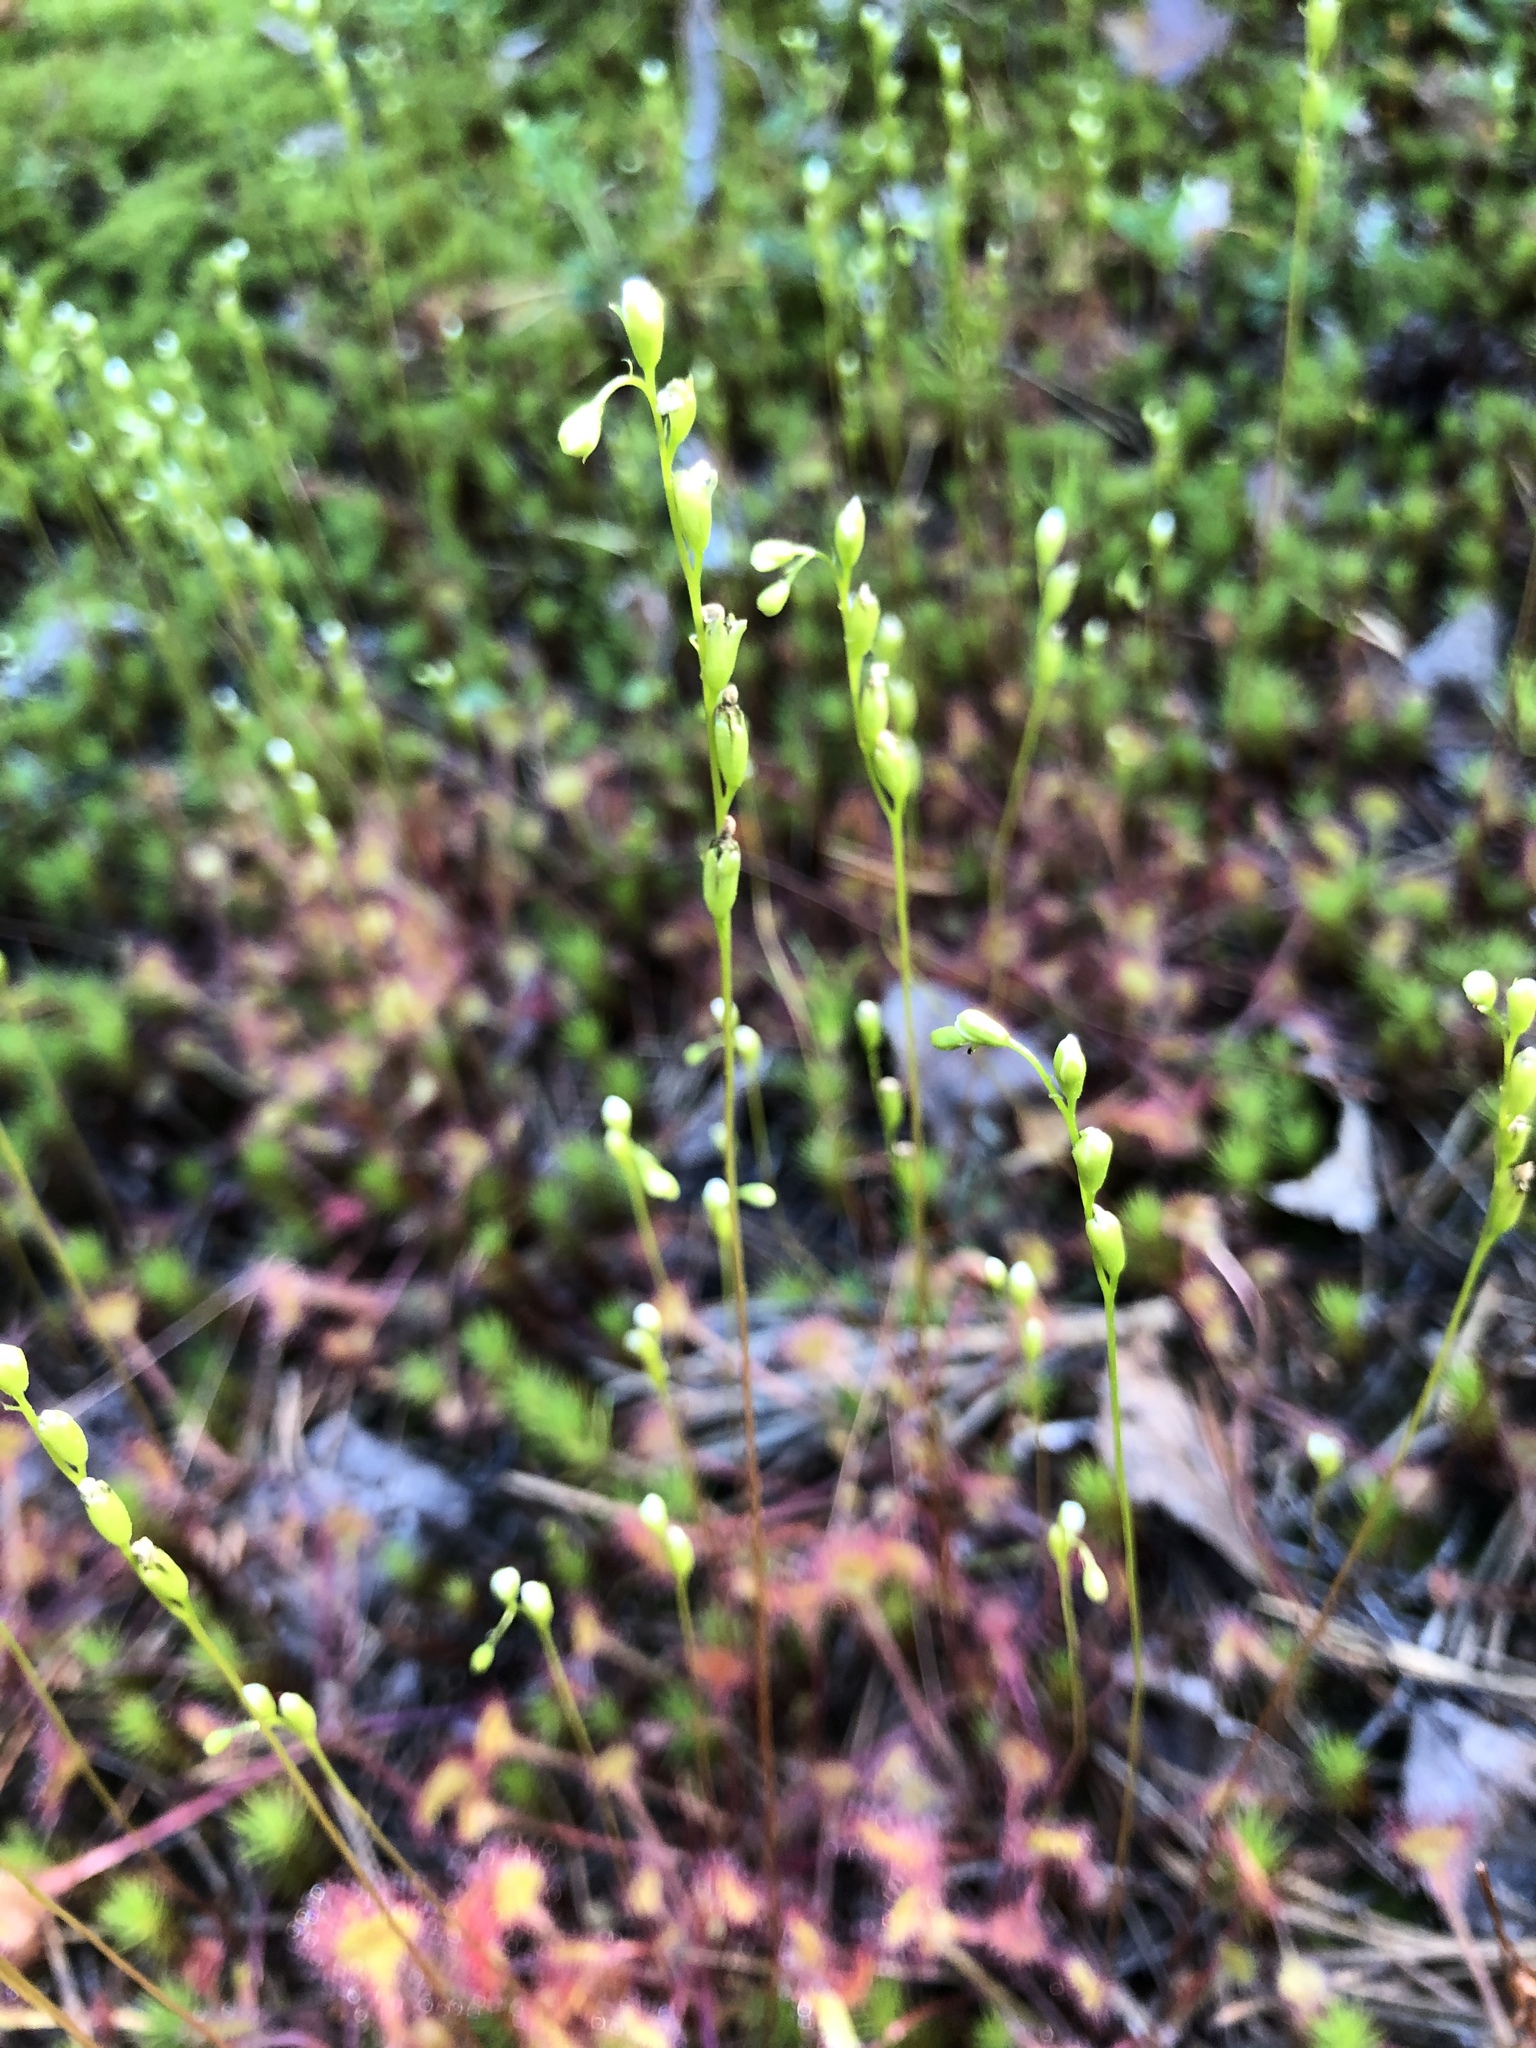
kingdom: Plantae
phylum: Tracheophyta
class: Magnoliopsida
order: Caryophyllales
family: Droseraceae
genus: Drosera
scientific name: Drosera rotundifolia
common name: Round-leaved sundew
